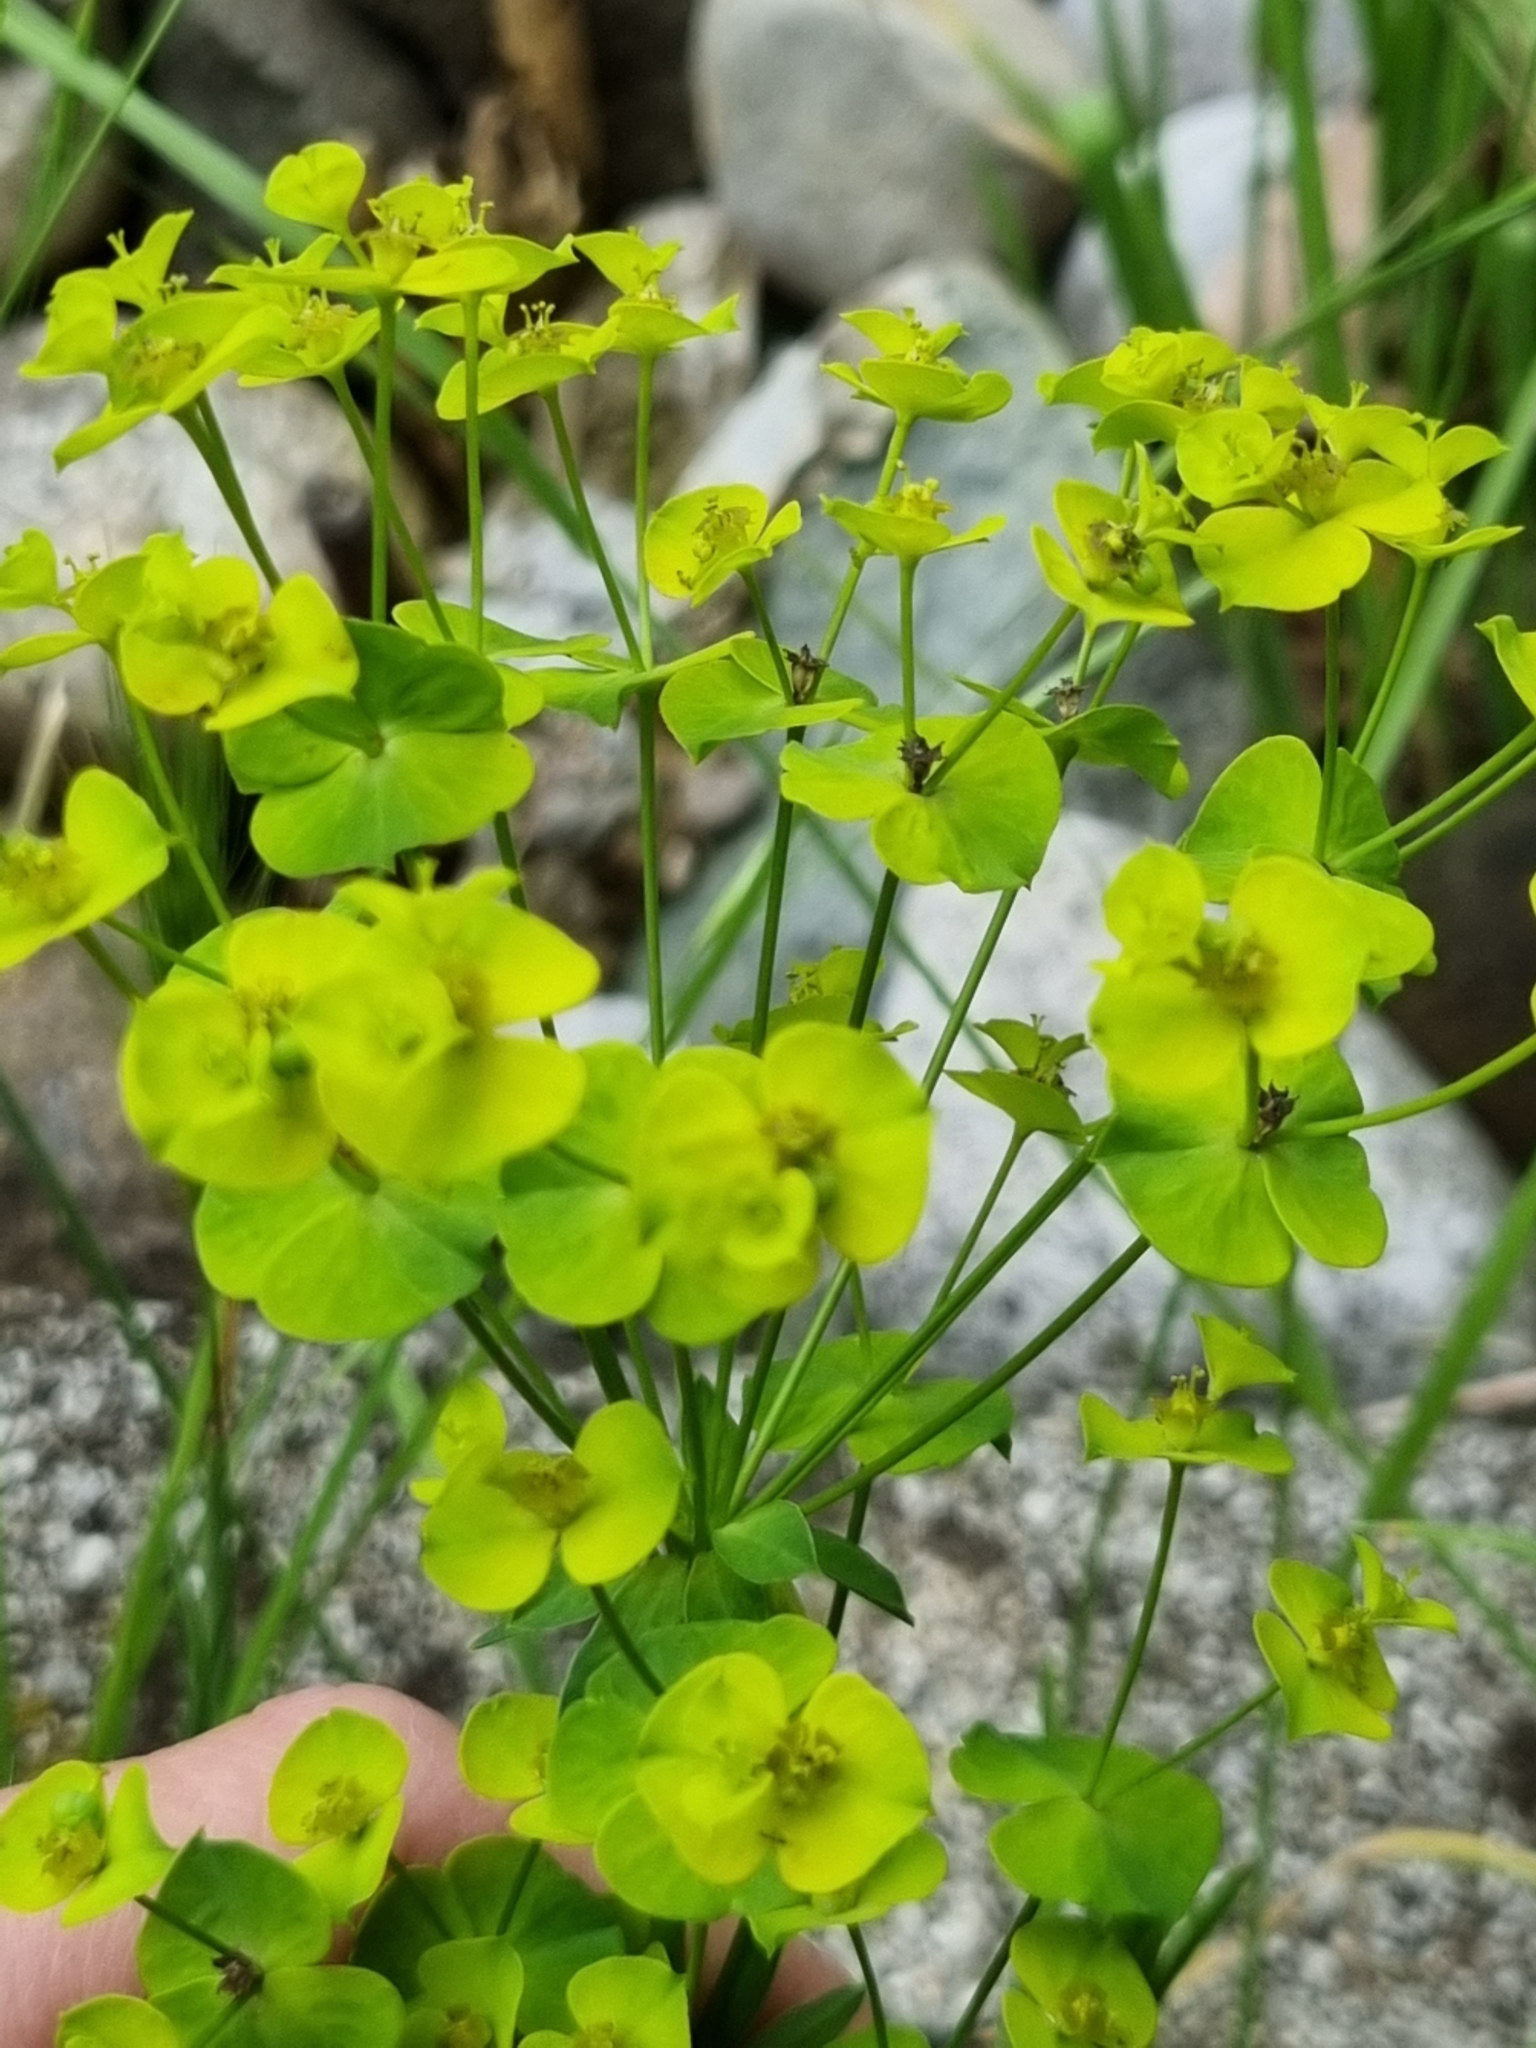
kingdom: Plantae
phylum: Tracheophyta
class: Magnoliopsida
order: Malpighiales
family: Euphorbiaceae
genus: Euphorbia
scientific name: Euphorbia cyparissias
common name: Cypress spurge
